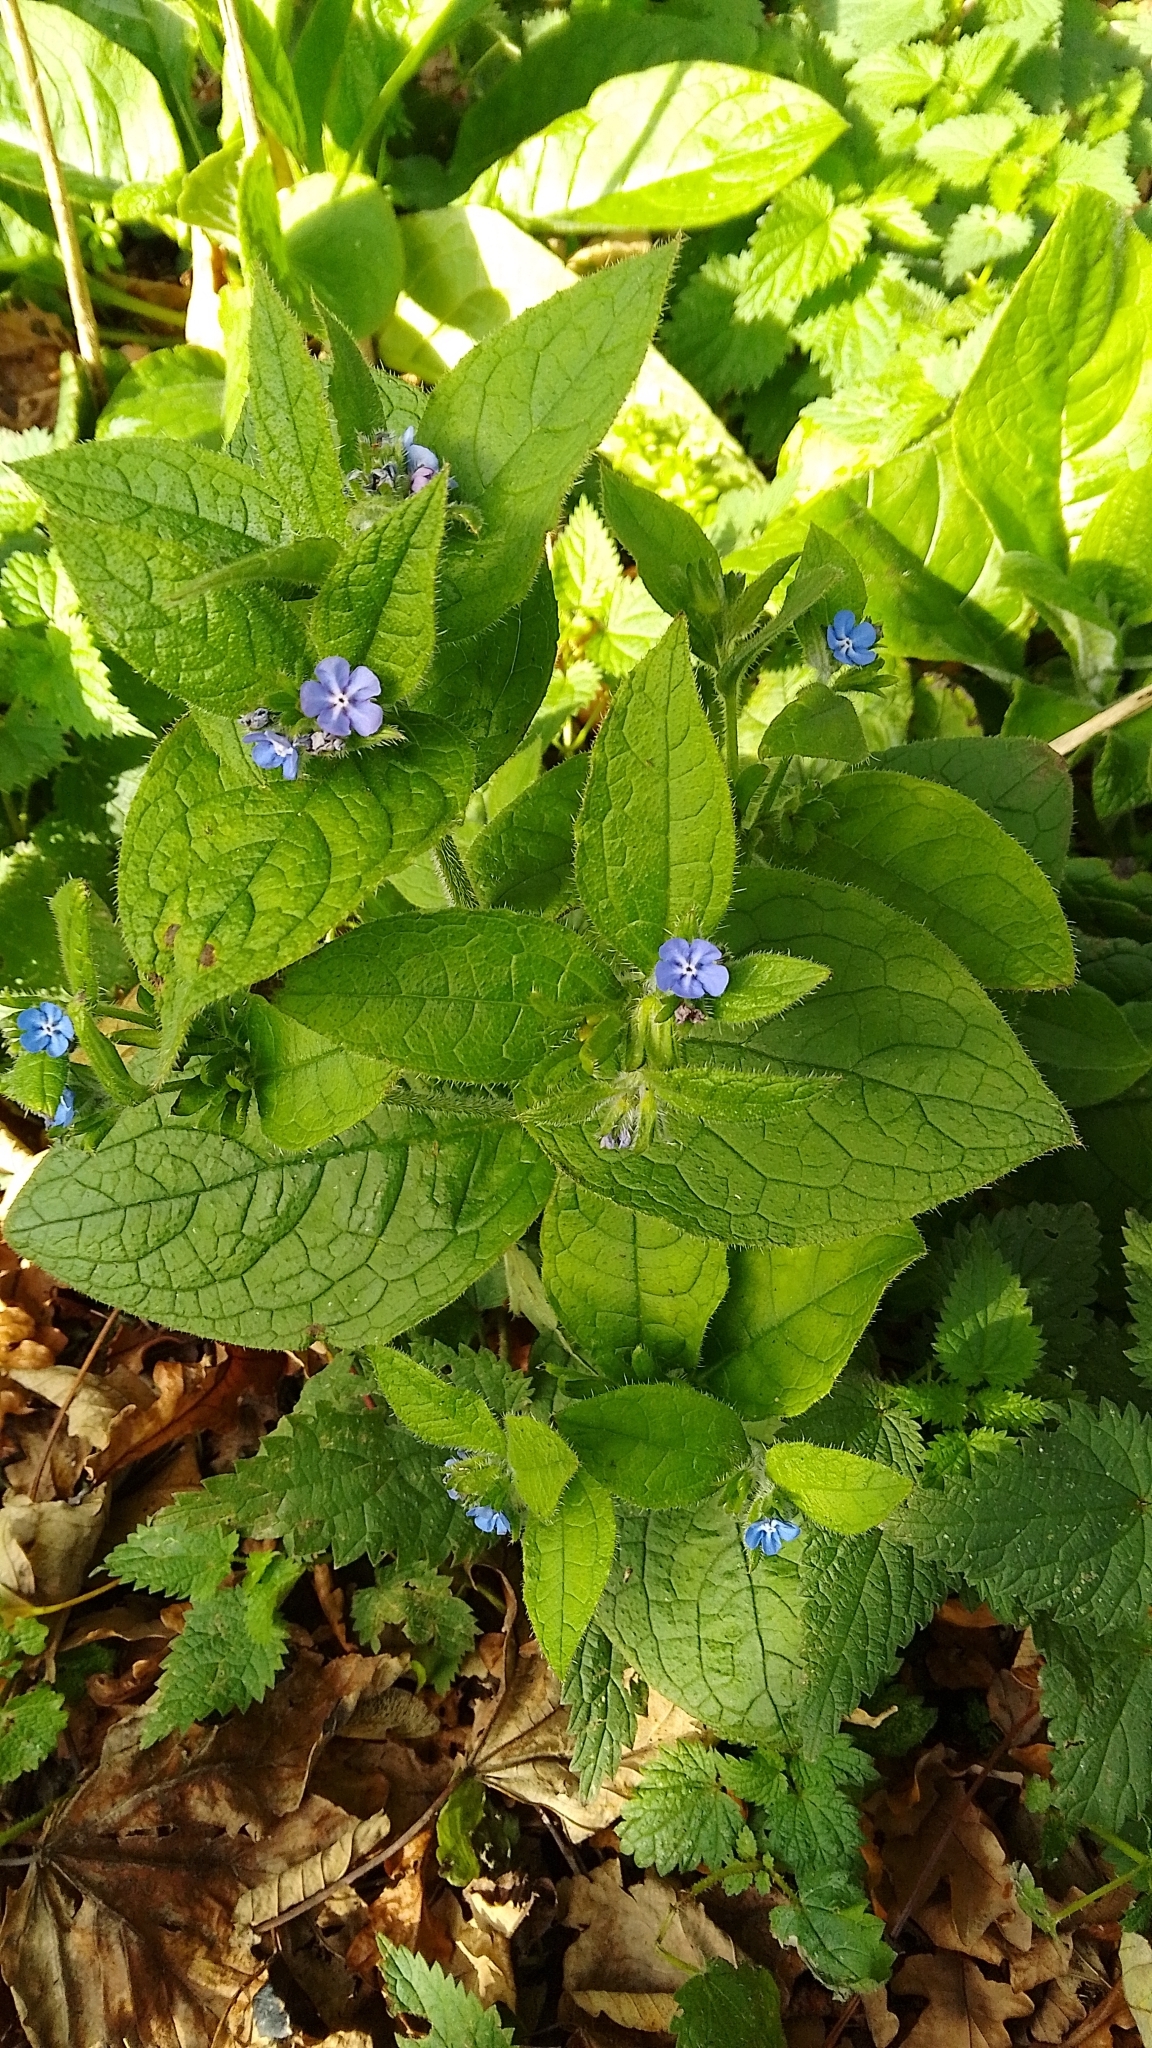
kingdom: Plantae
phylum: Tracheophyta
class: Magnoliopsida
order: Boraginales
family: Boraginaceae
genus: Pentaglottis
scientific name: Pentaglottis sempervirens
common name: Green alkanet
